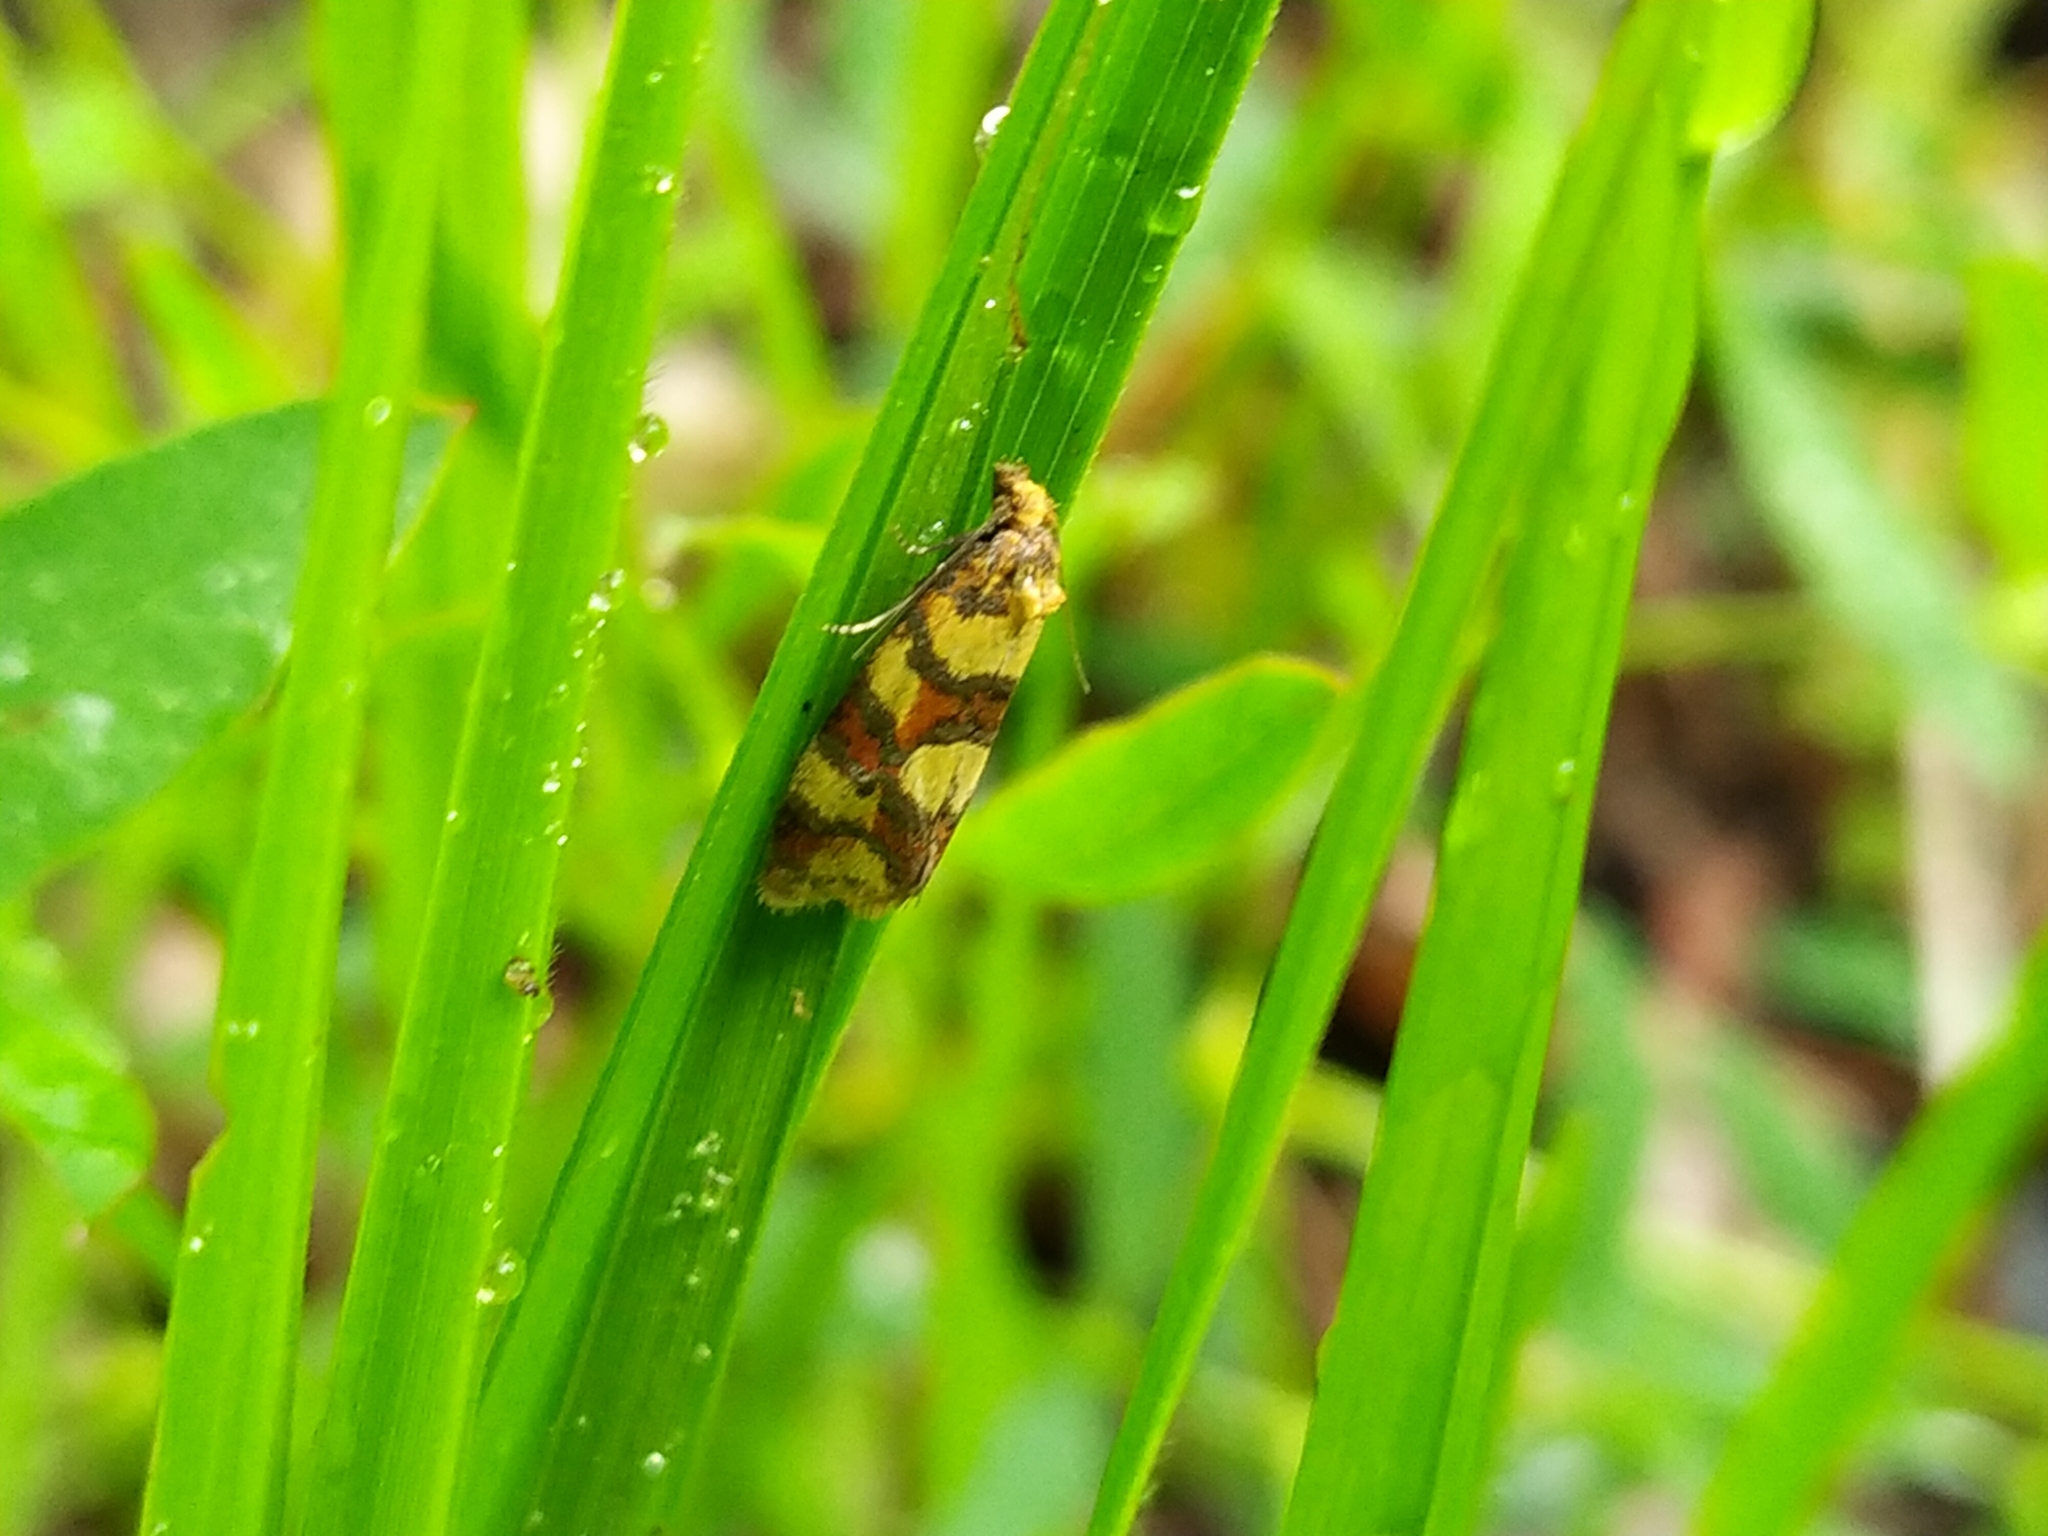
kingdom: Animalia
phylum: Arthropoda
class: Insecta
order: Lepidoptera
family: Tortricidae
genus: Aethes
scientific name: Aethes tesserana
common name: Downland conch
